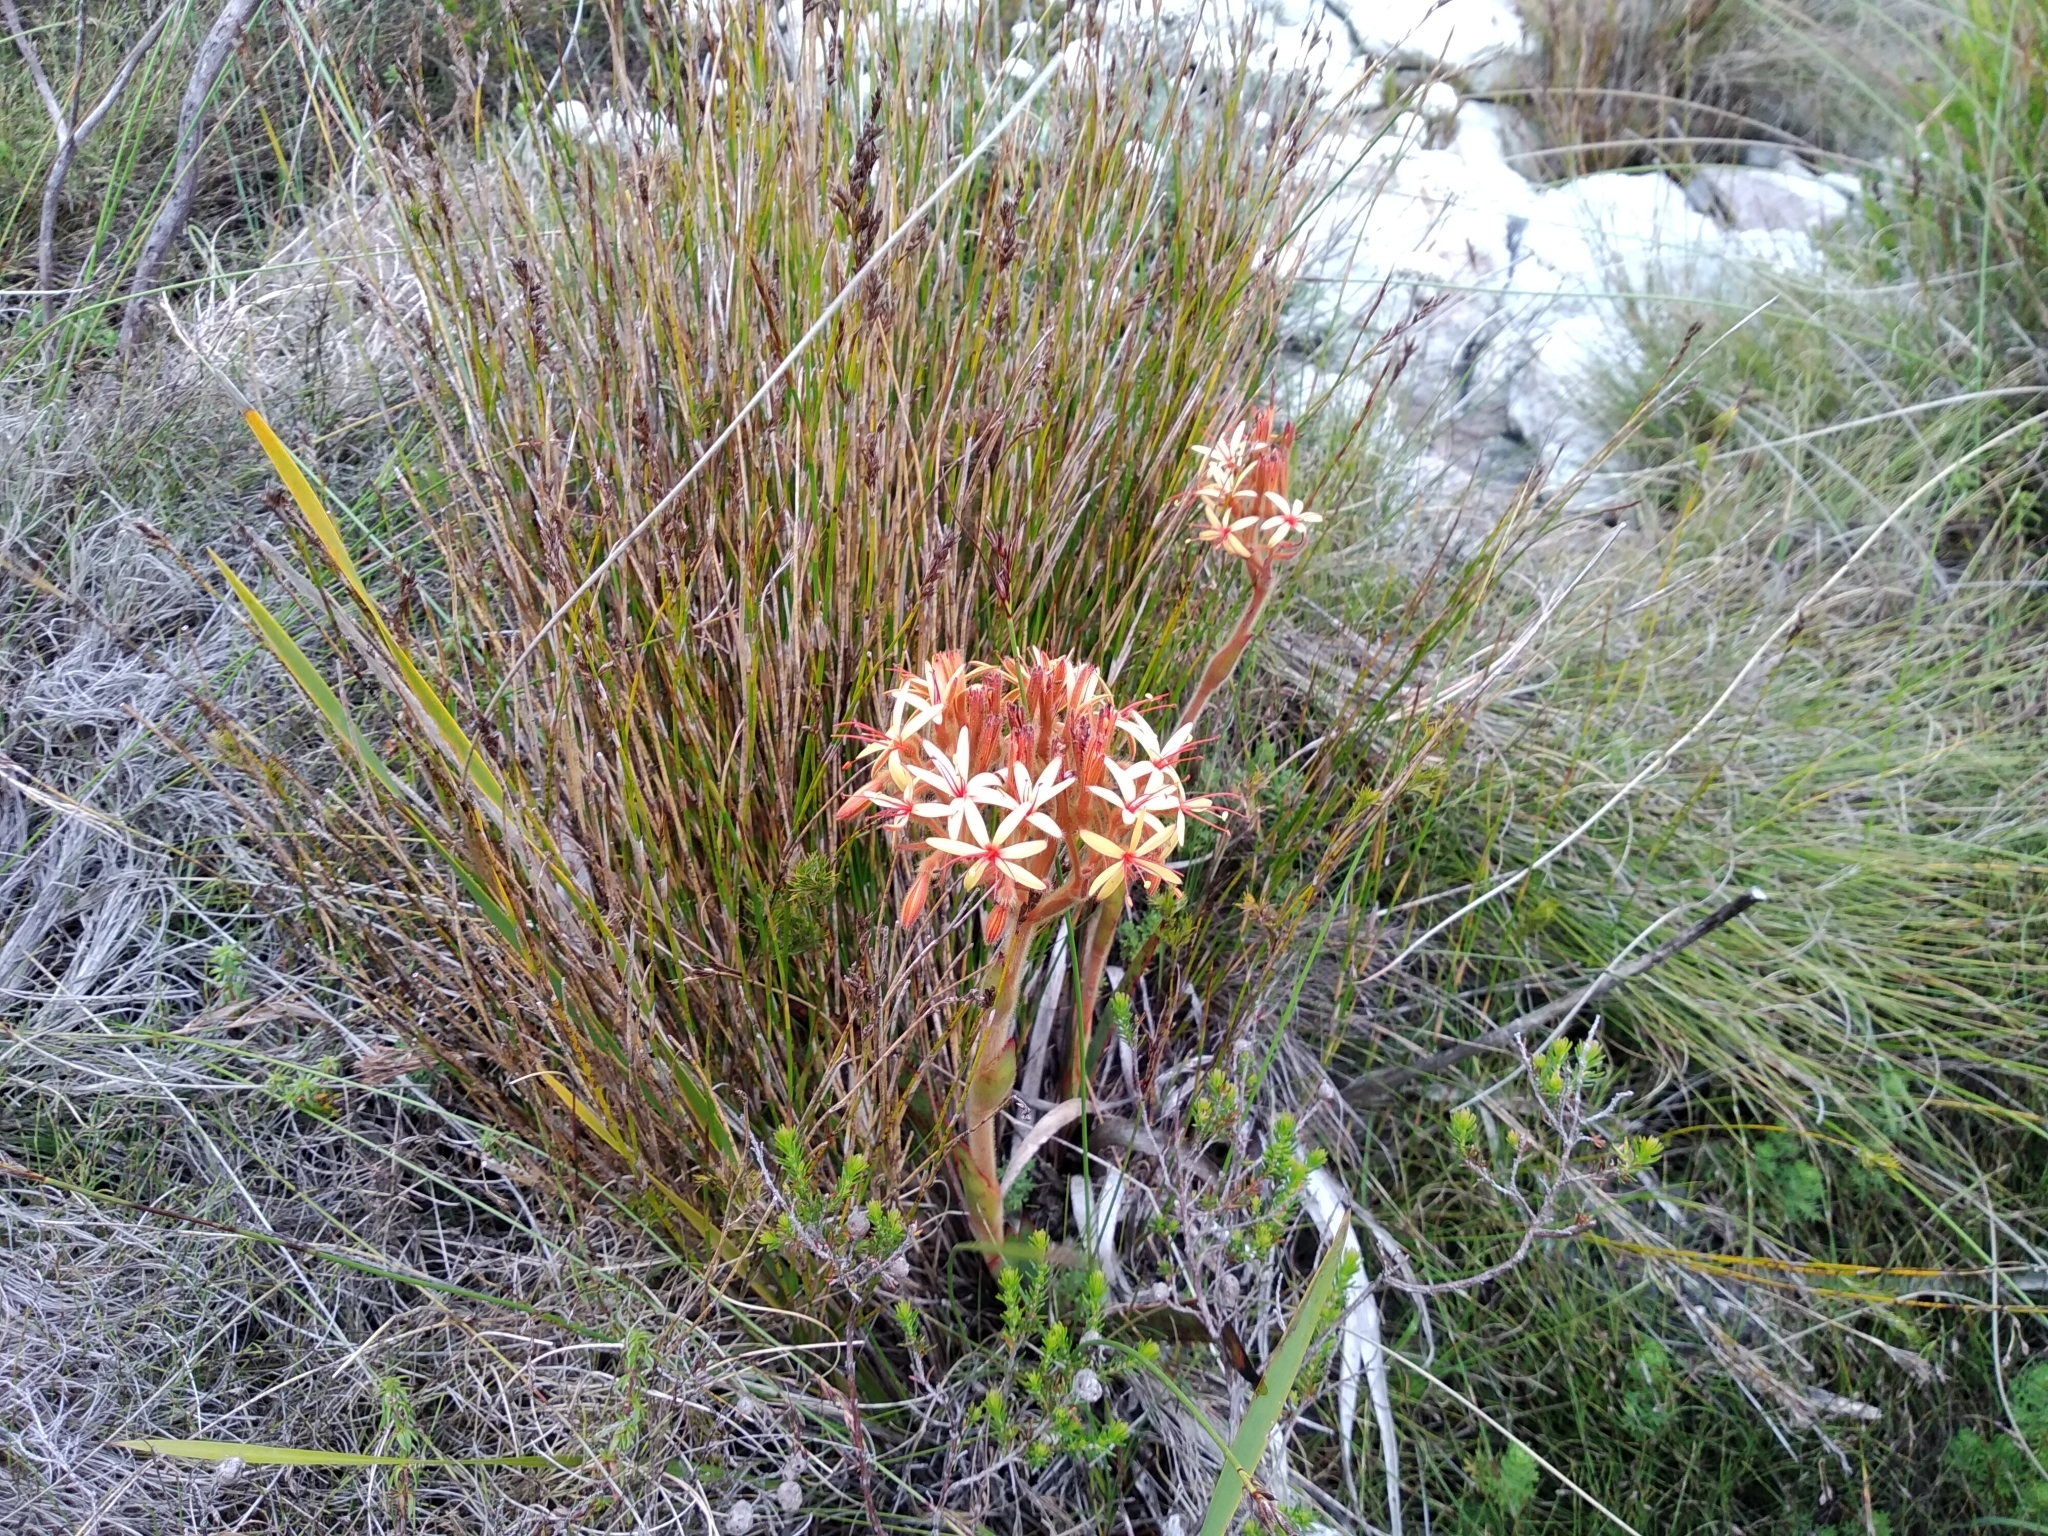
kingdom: Plantae
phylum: Tracheophyta
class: Liliopsida
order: Commelinales
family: Haemodoraceae
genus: Dilatris
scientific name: Dilatris viscosa
